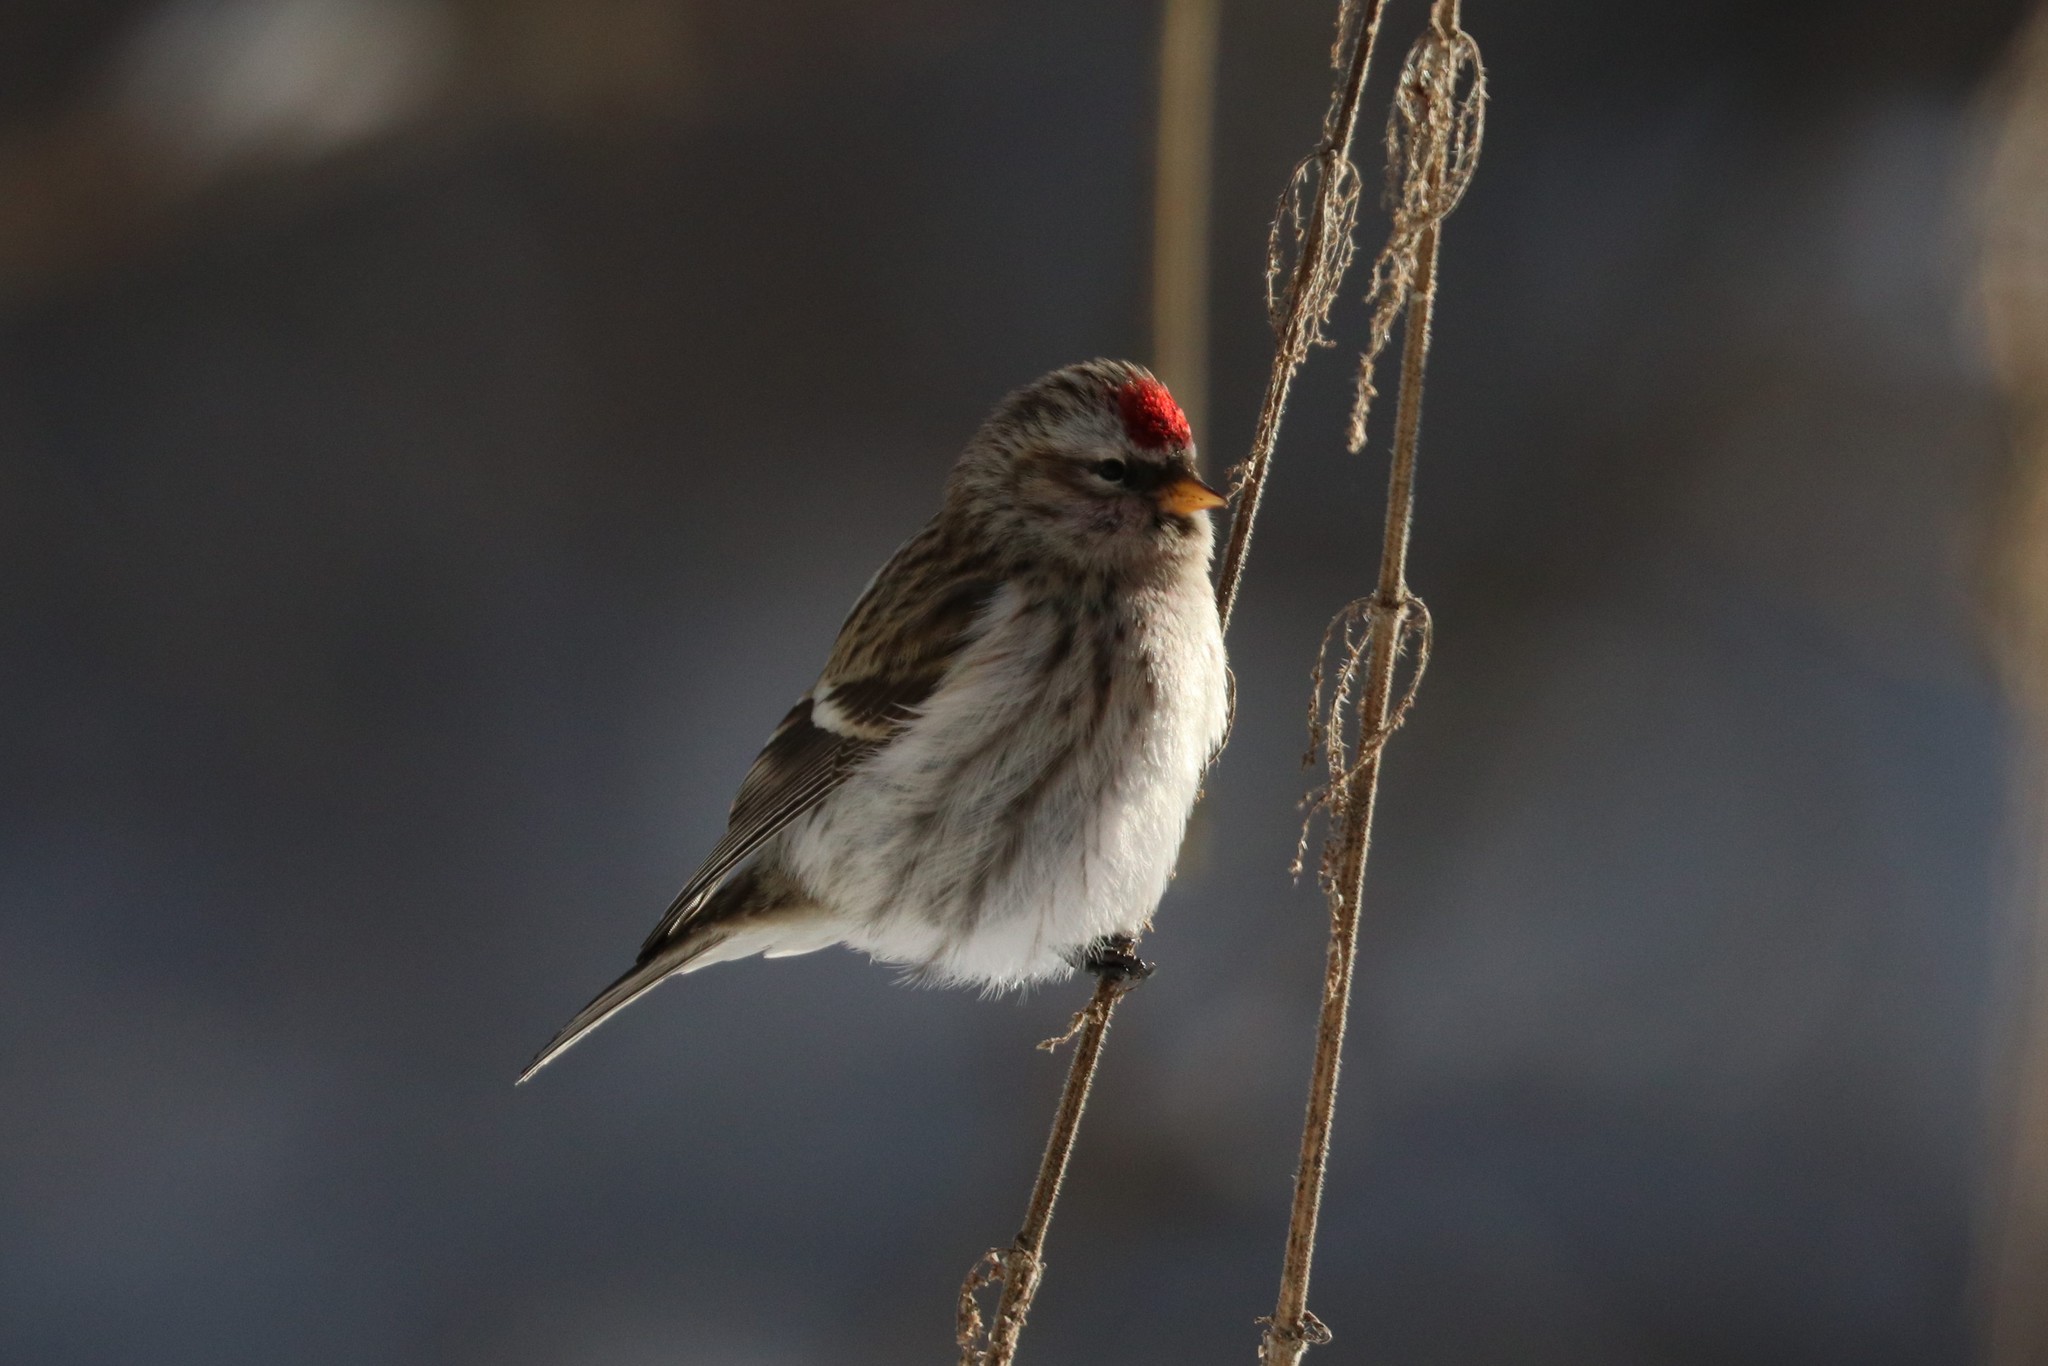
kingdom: Animalia
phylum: Chordata
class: Aves
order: Passeriformes
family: Fringillidae
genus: Acanthis
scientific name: Acanthis flammea
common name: Common redpoll
